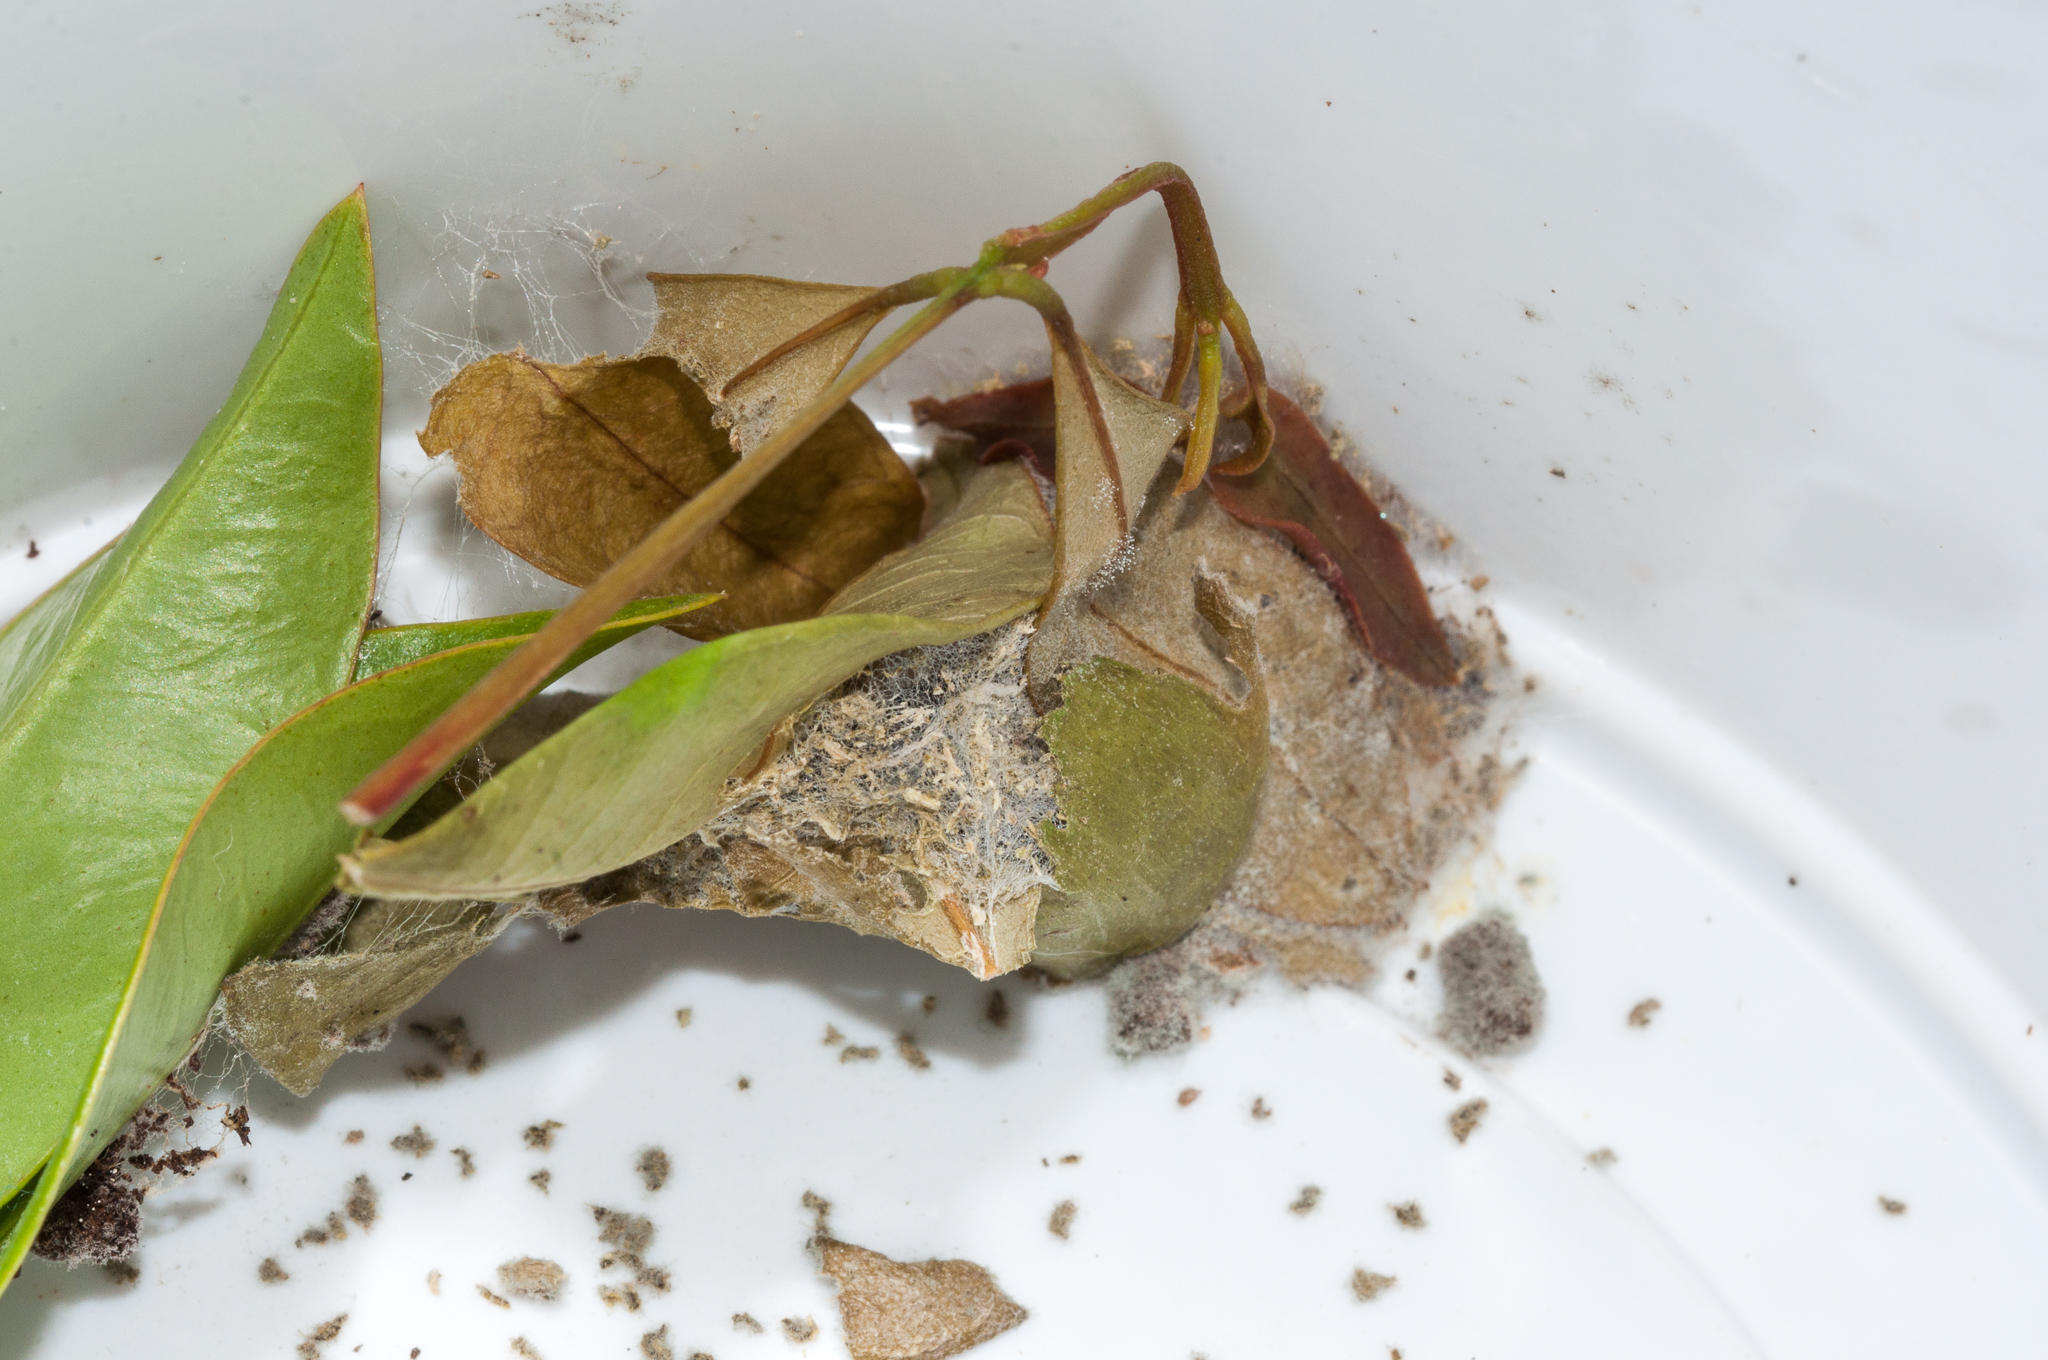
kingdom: Animalia
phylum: Arthropoda
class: Insecta
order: Lepidoptera
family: Erebidae
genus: Achaea
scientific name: Achaea echo
